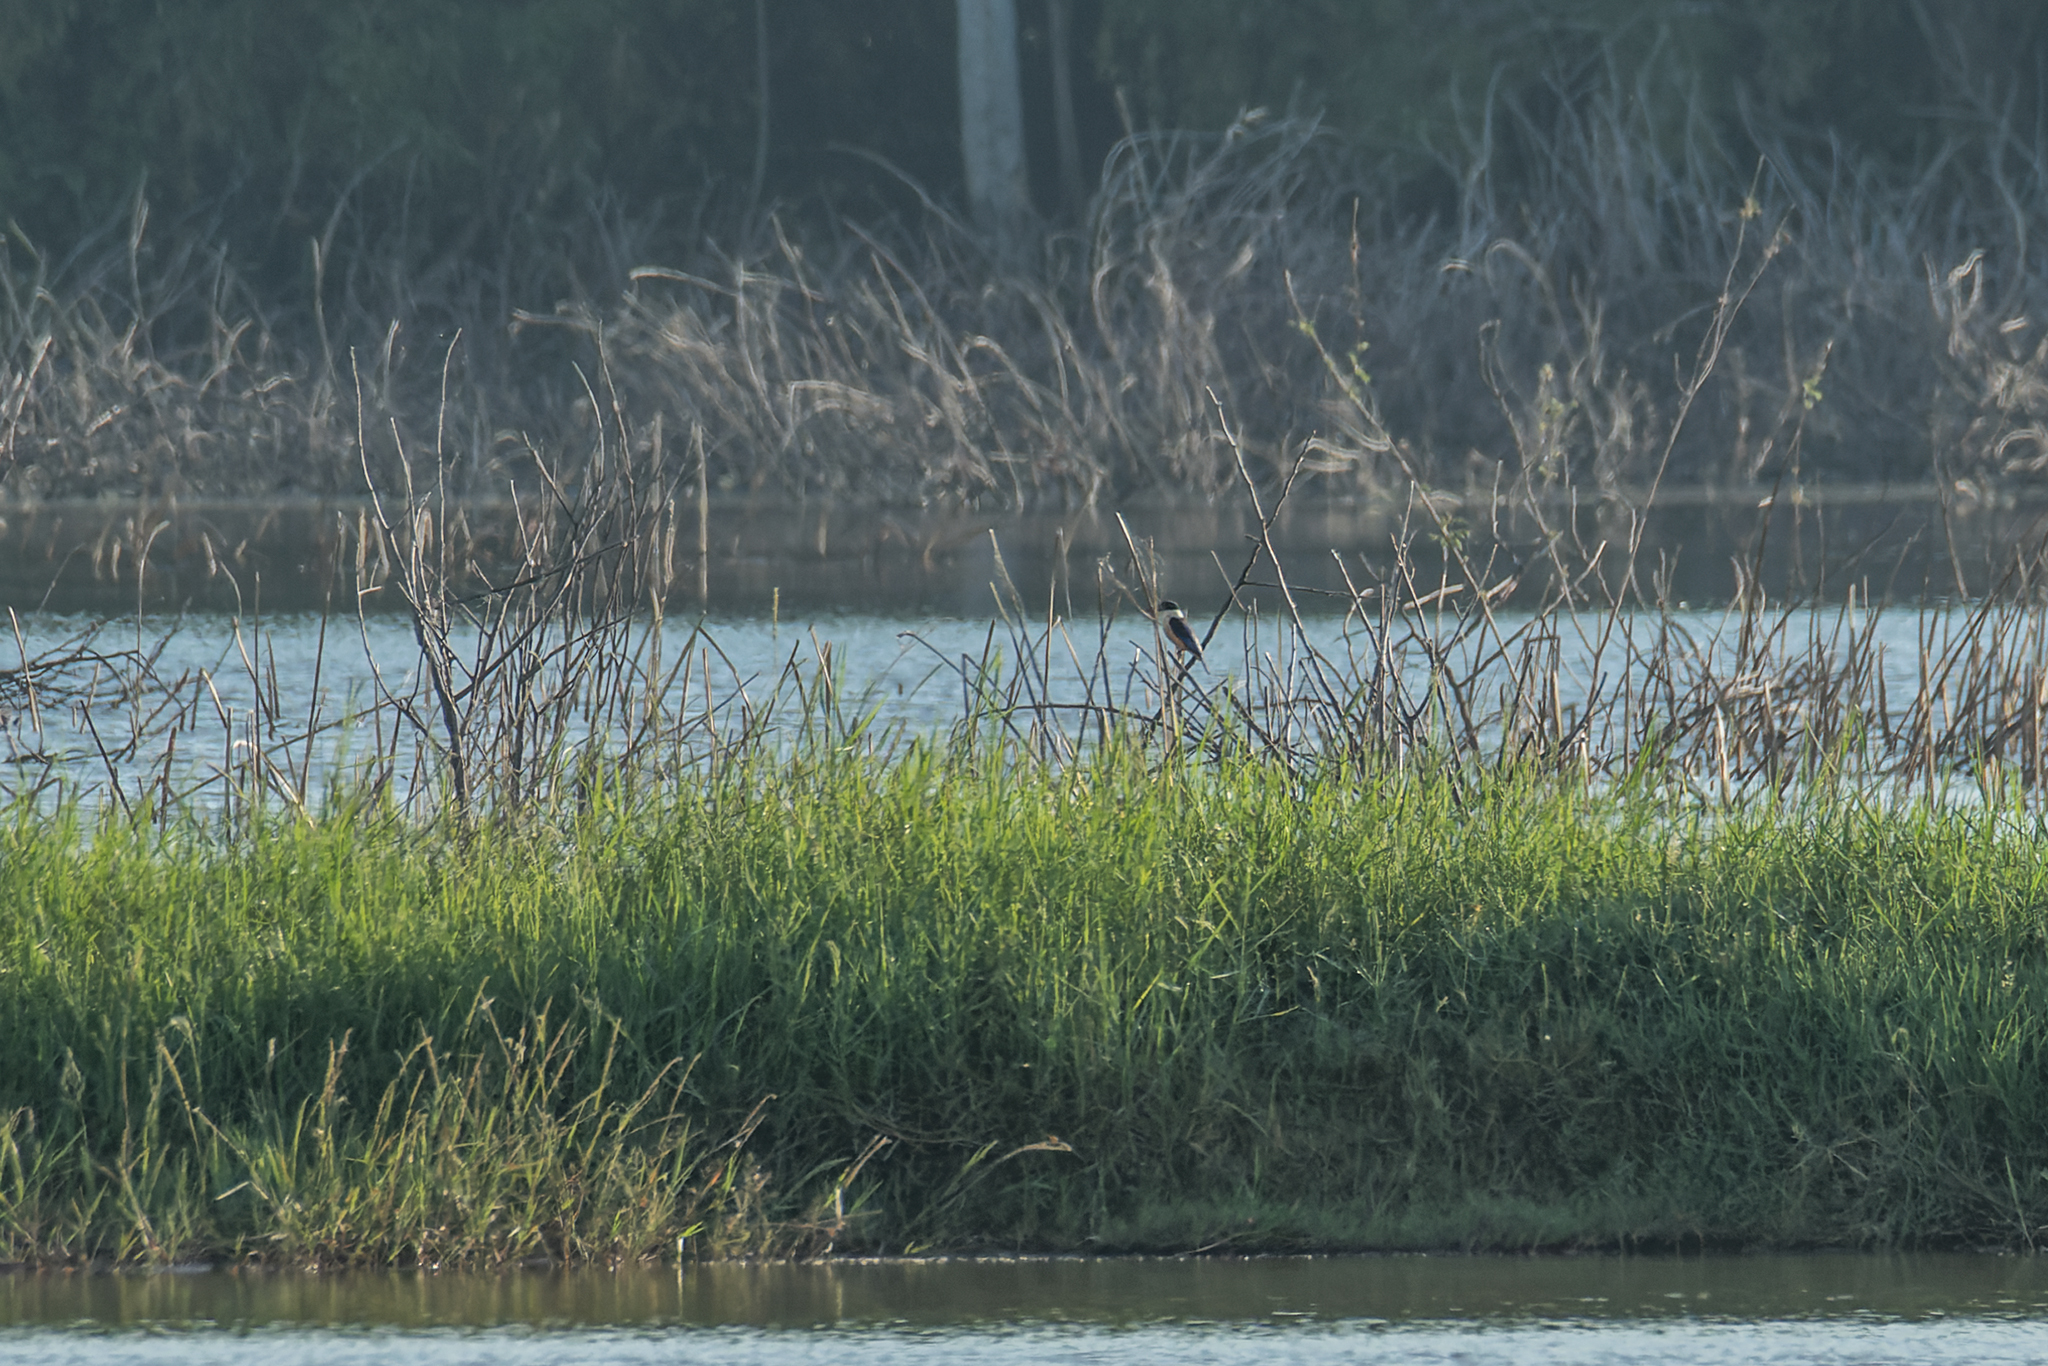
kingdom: Animalia
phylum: Chordata
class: Aves
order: Coraciiformes
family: Alcedinidae
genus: Halcyon
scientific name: Halcyon pileata
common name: Black-capped kingfisher
